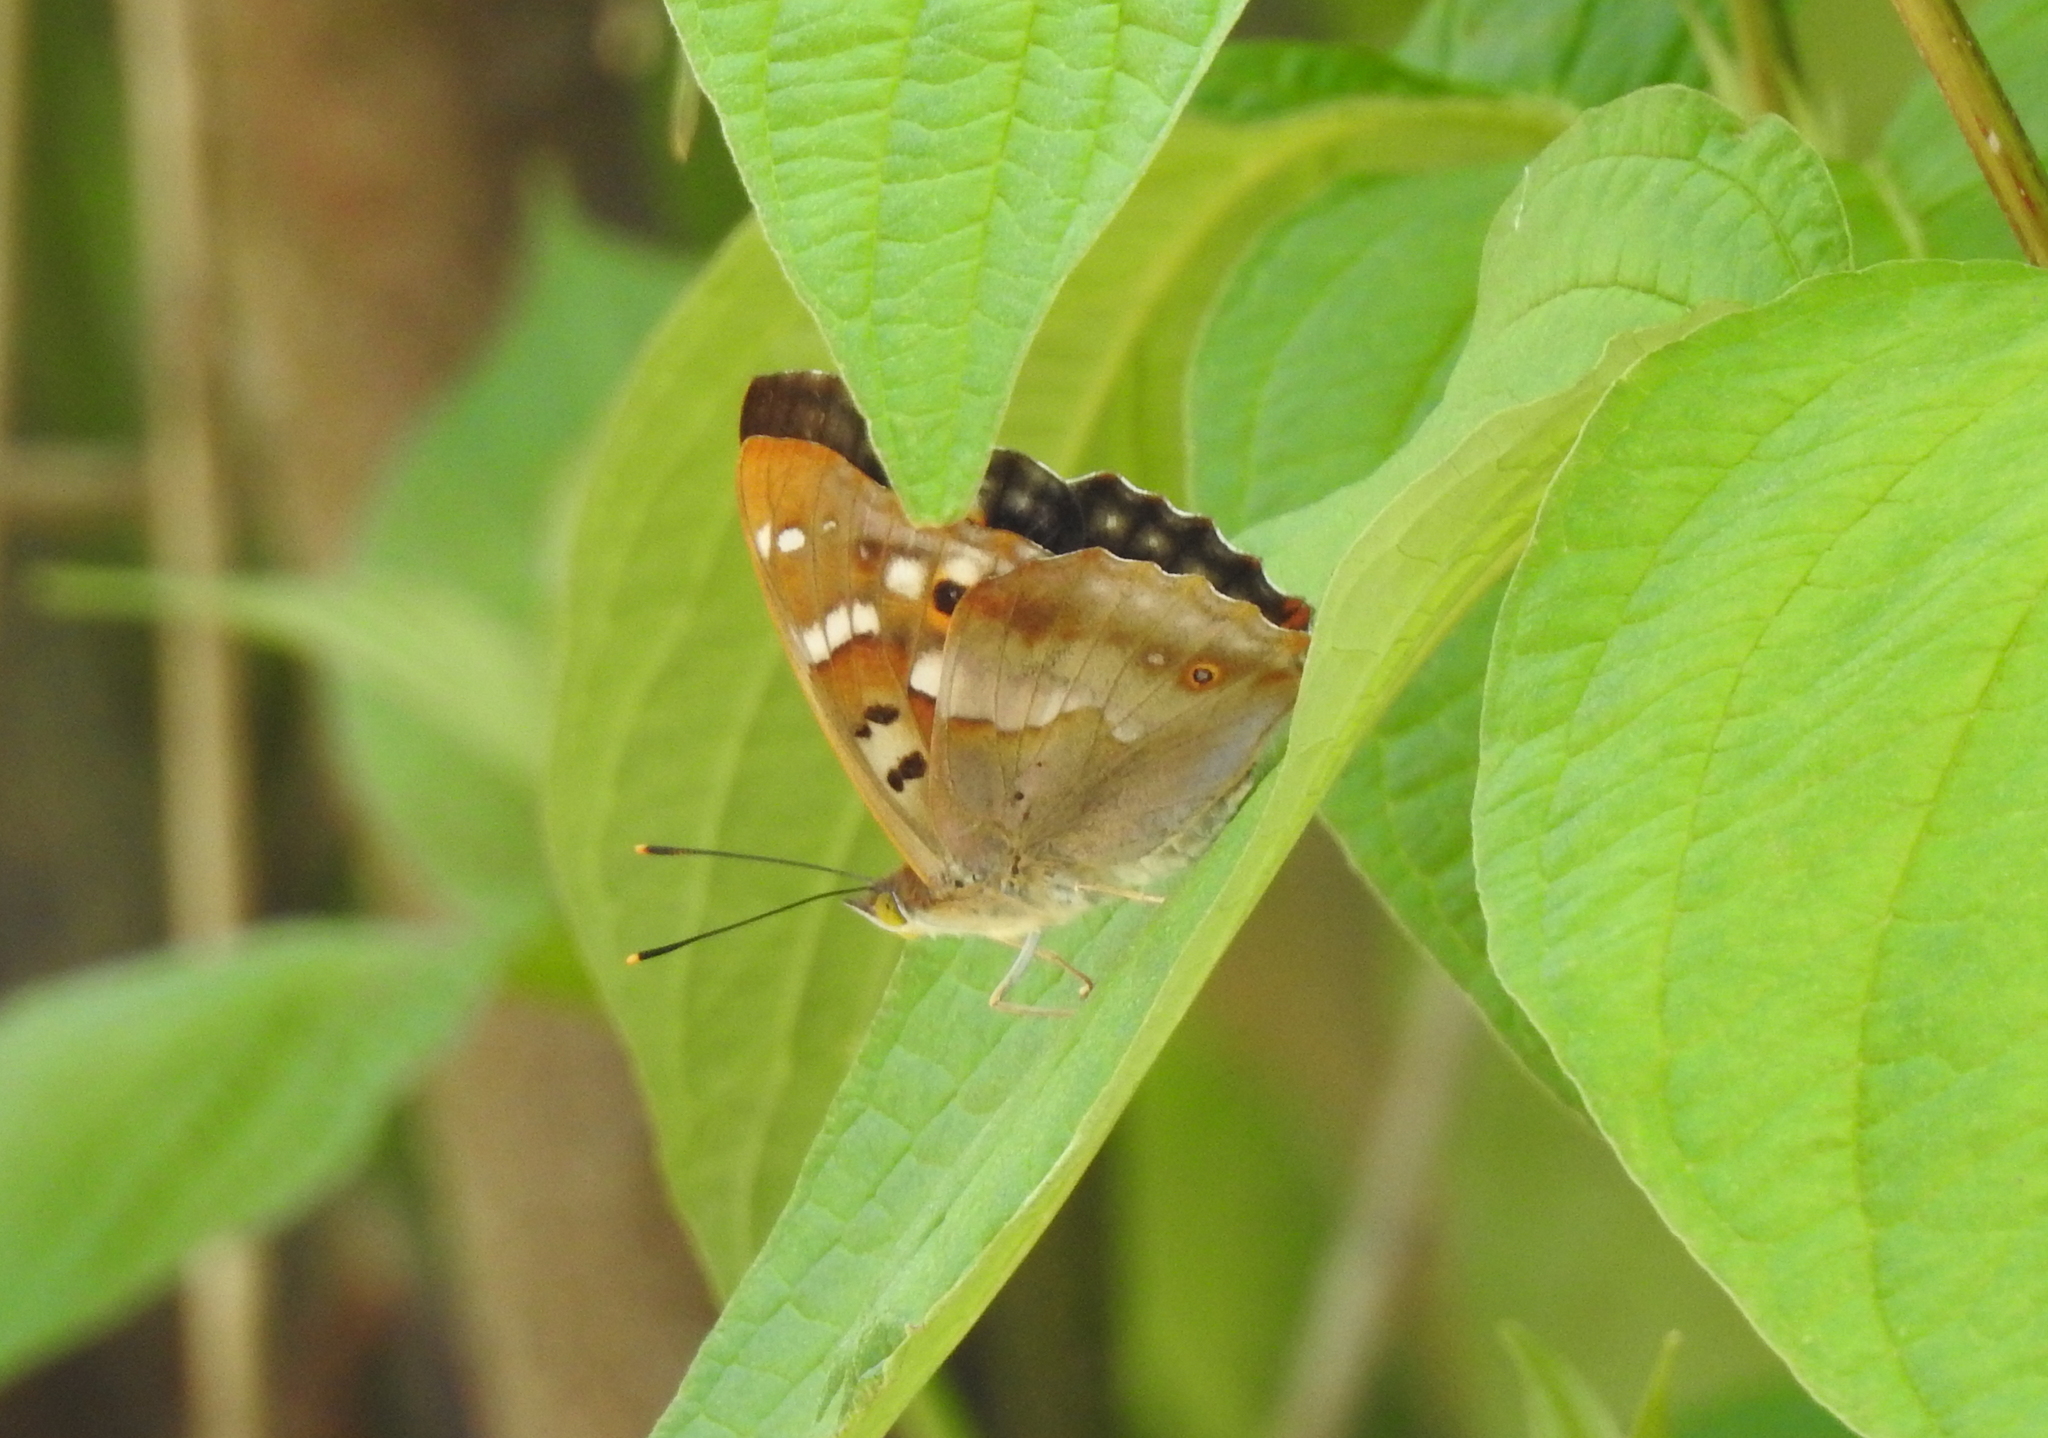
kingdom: Animalia
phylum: Arthropoda
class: Insecta
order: Lepidoptera
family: Nymphalidae
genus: Apatura
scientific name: Apatura ilia
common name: Lesser purple emperor
